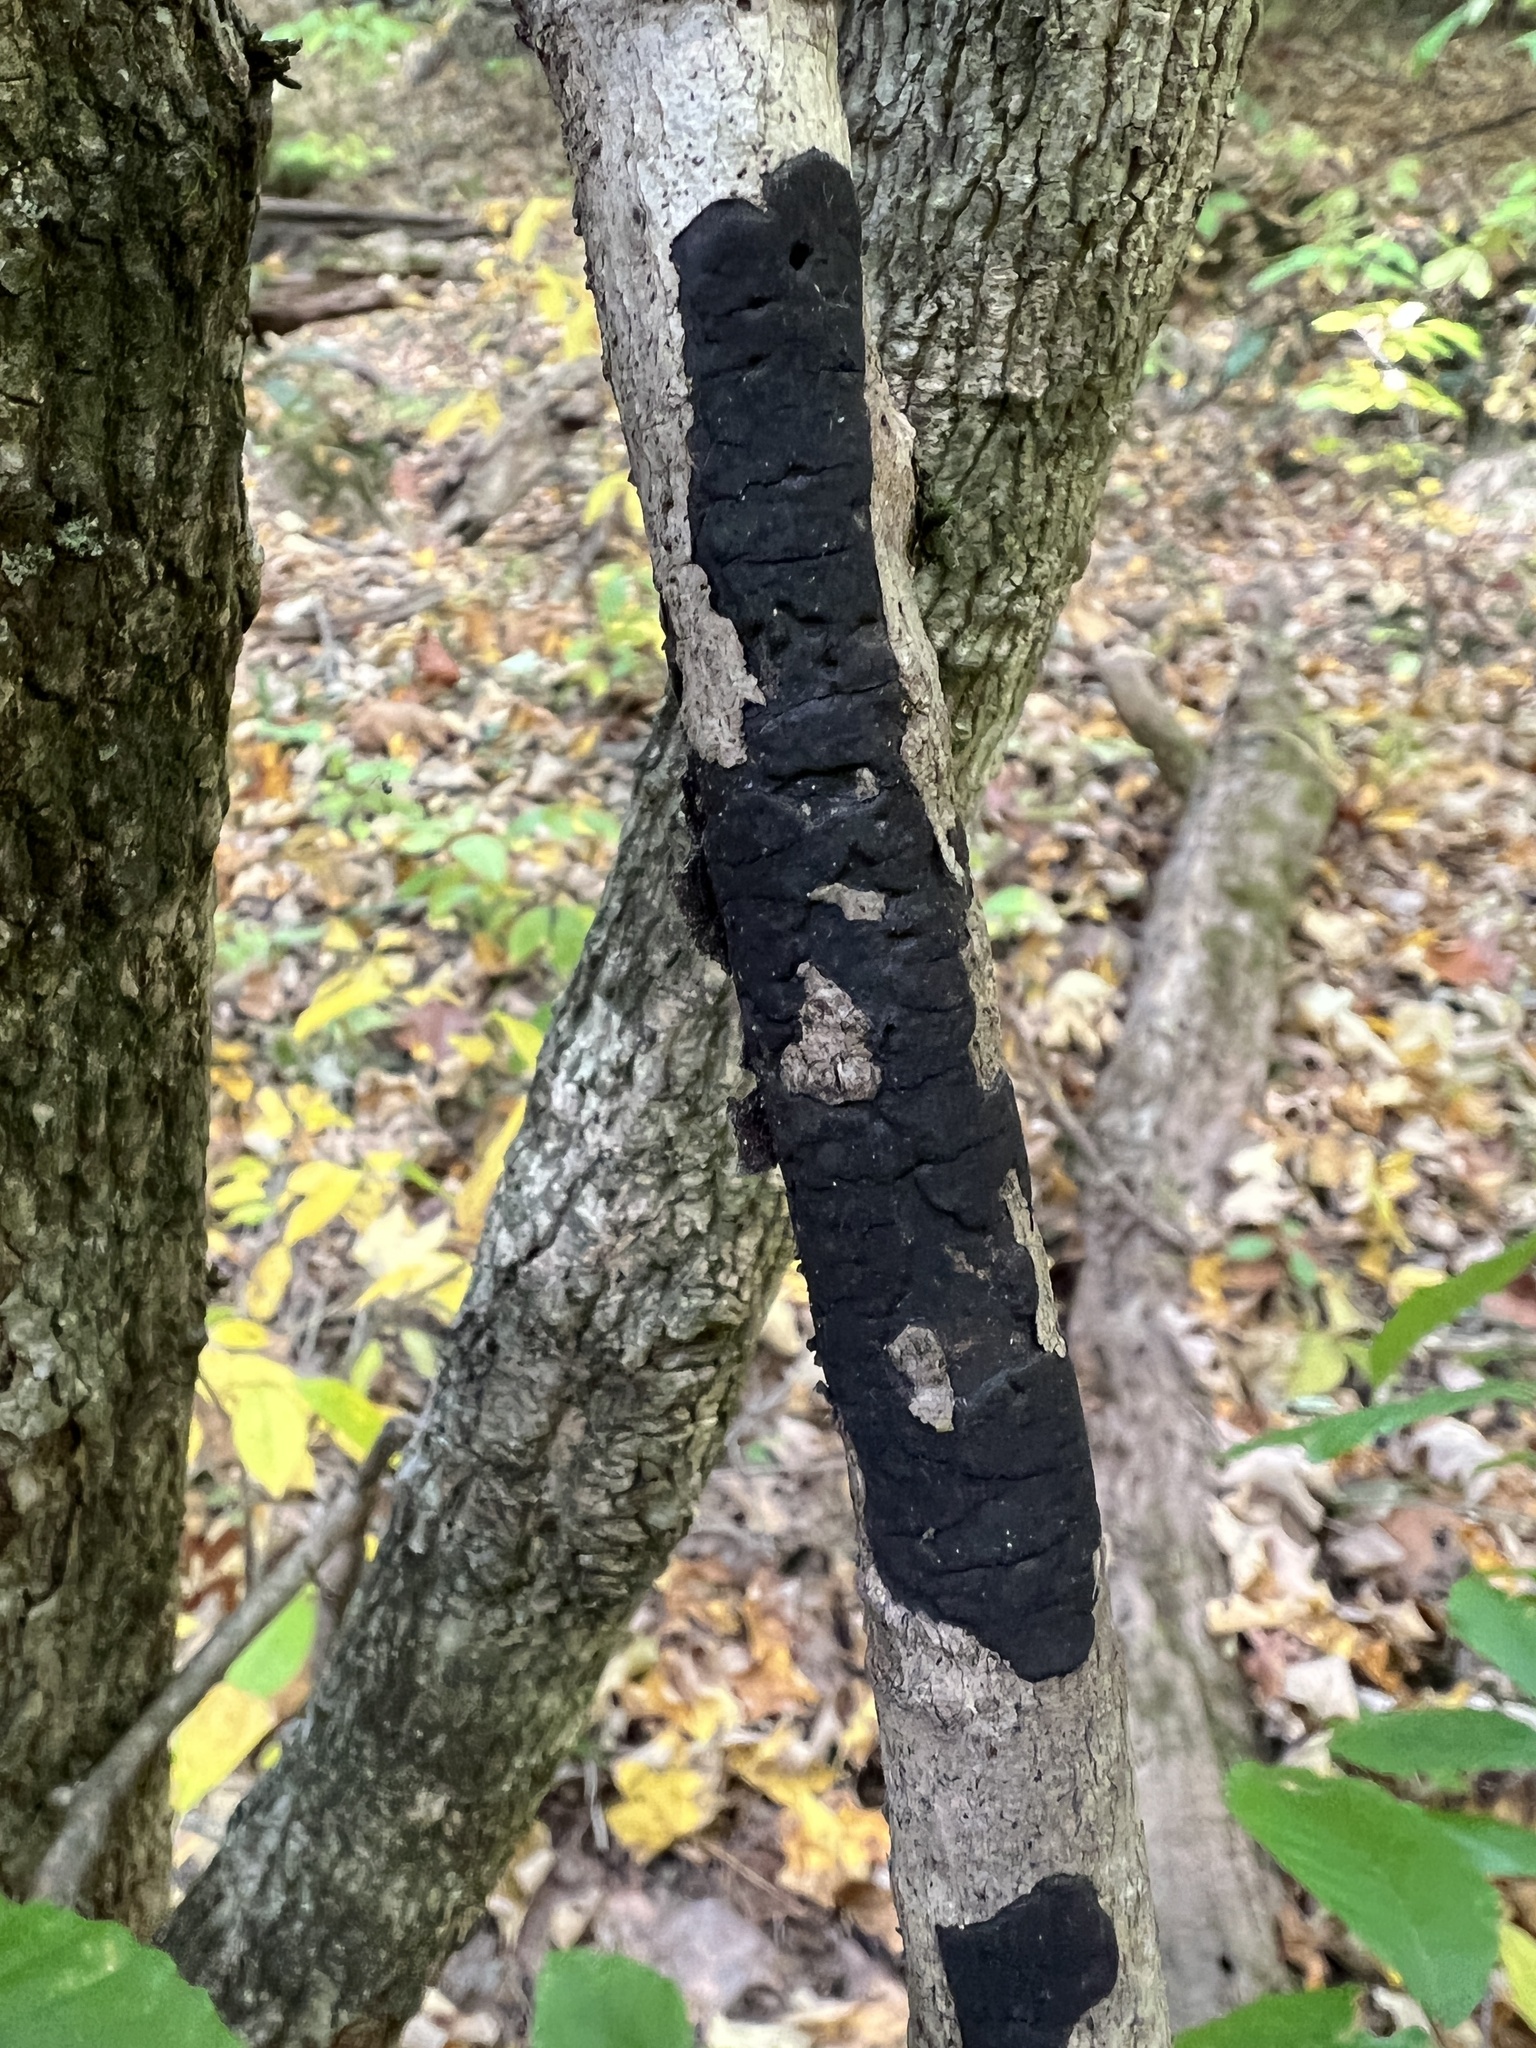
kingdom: Fungi
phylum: Ascomycota
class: Sordariomycetes
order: Xylariales
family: Diatrypaceae
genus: Diatrype
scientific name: Diatrype stigma
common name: Common tarcrust
